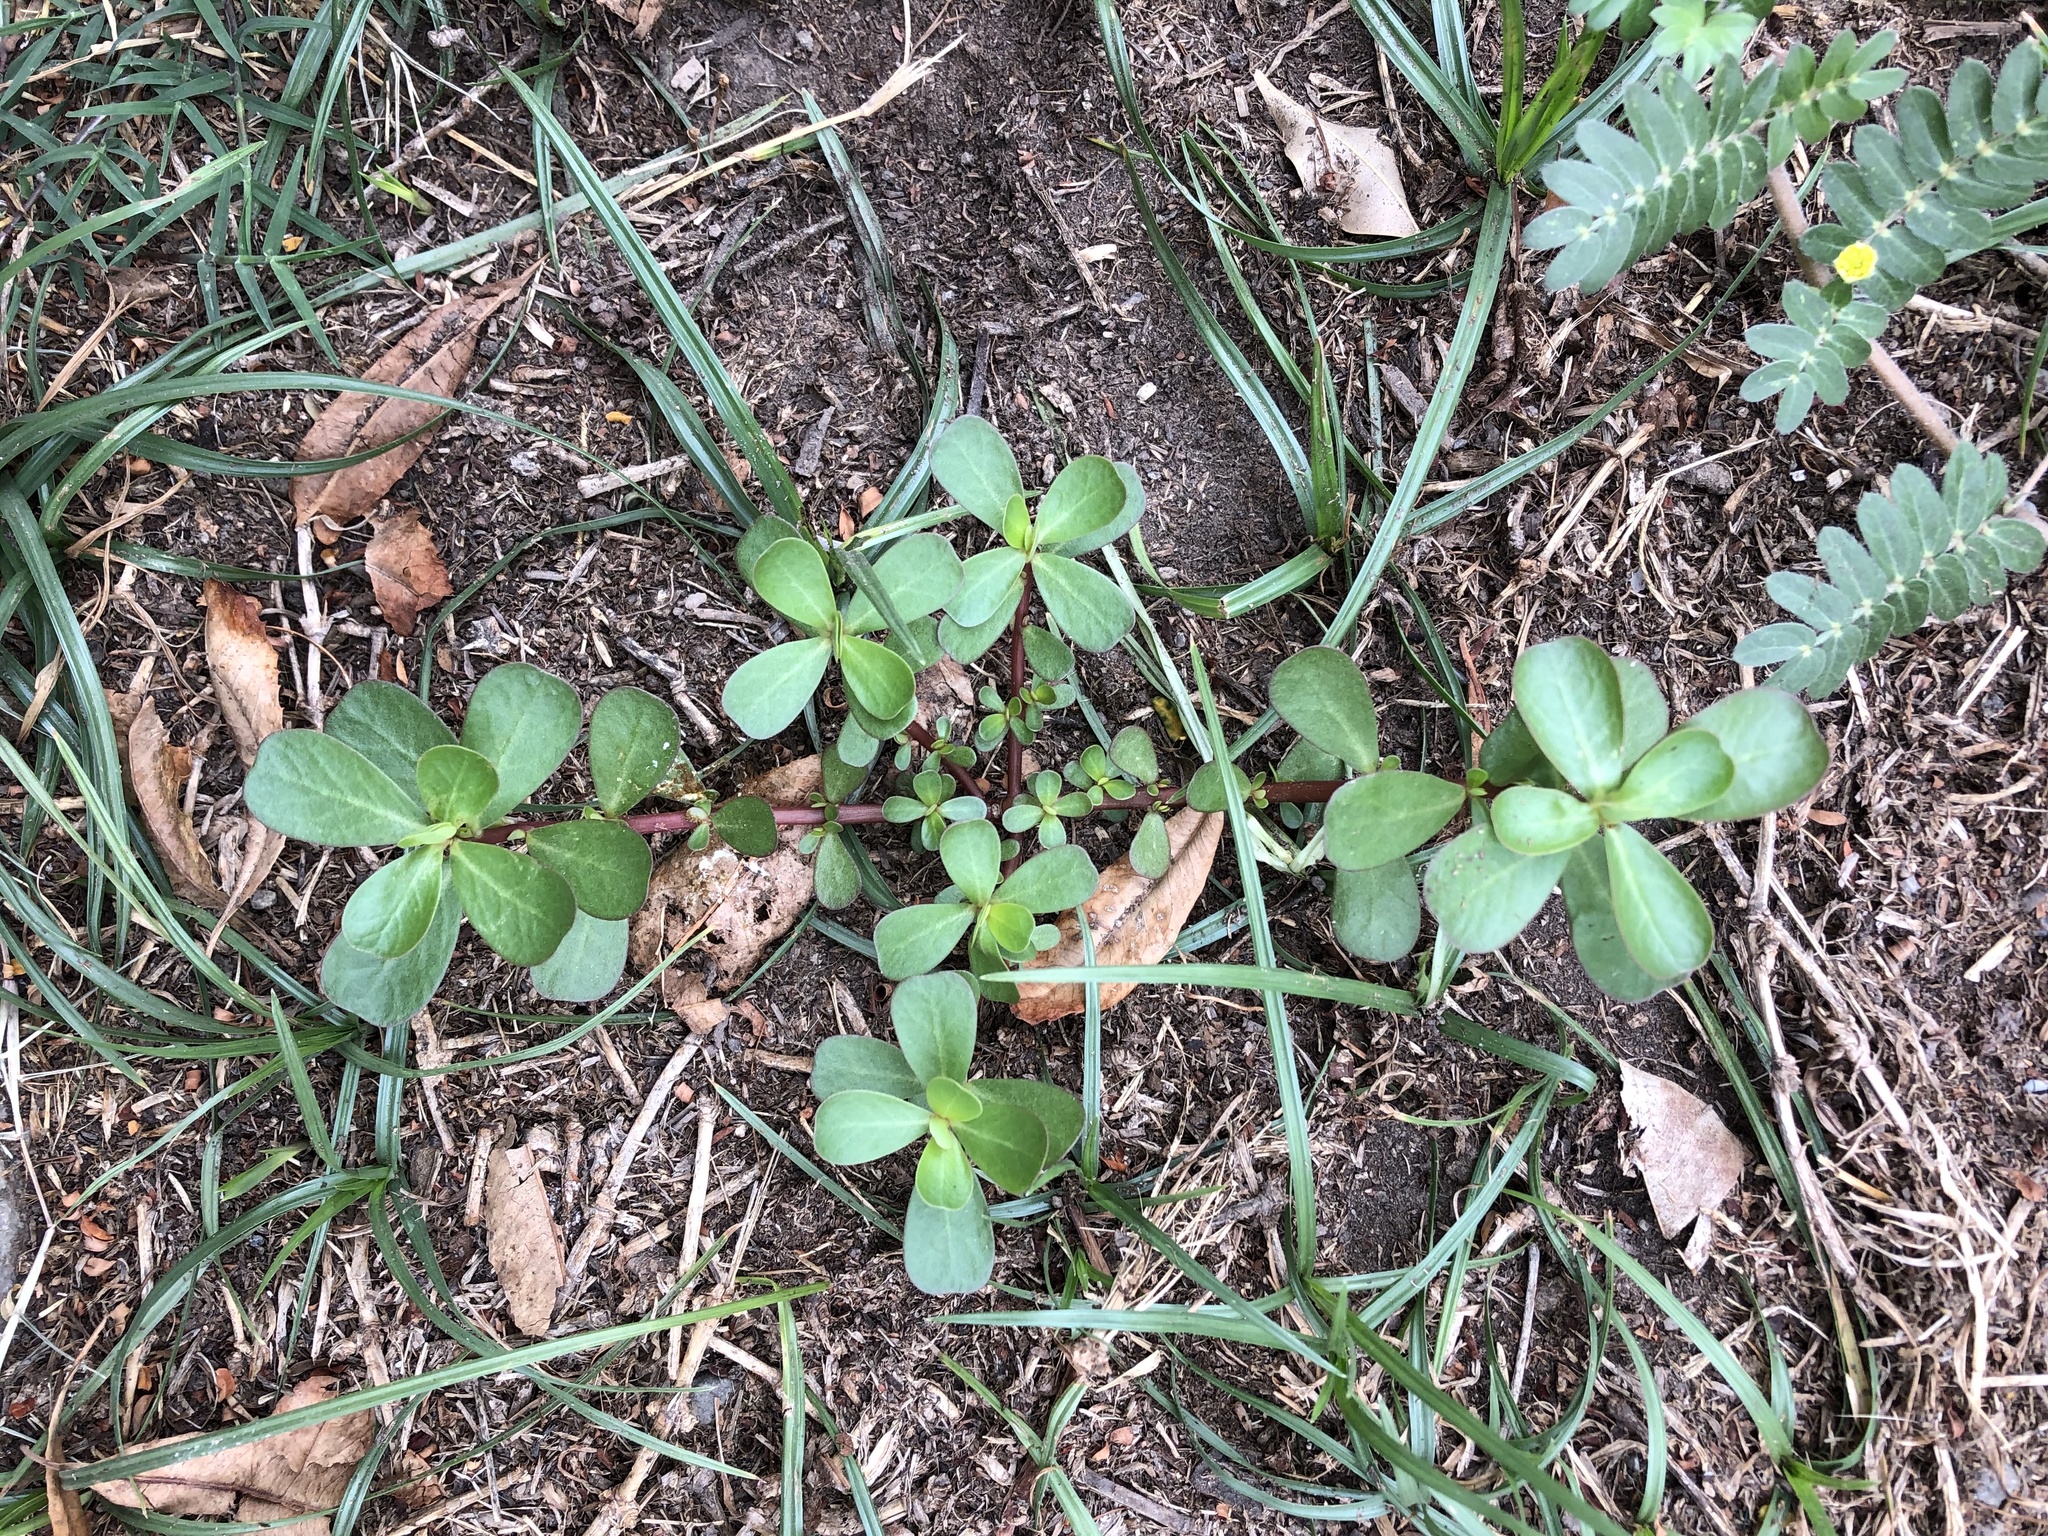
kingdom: Plantae
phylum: Tracheophyta
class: Magnoliopsida
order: Caryophyllales
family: Portulacaceae
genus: Portulaca
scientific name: Portulaca oleracea
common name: Common purslane
